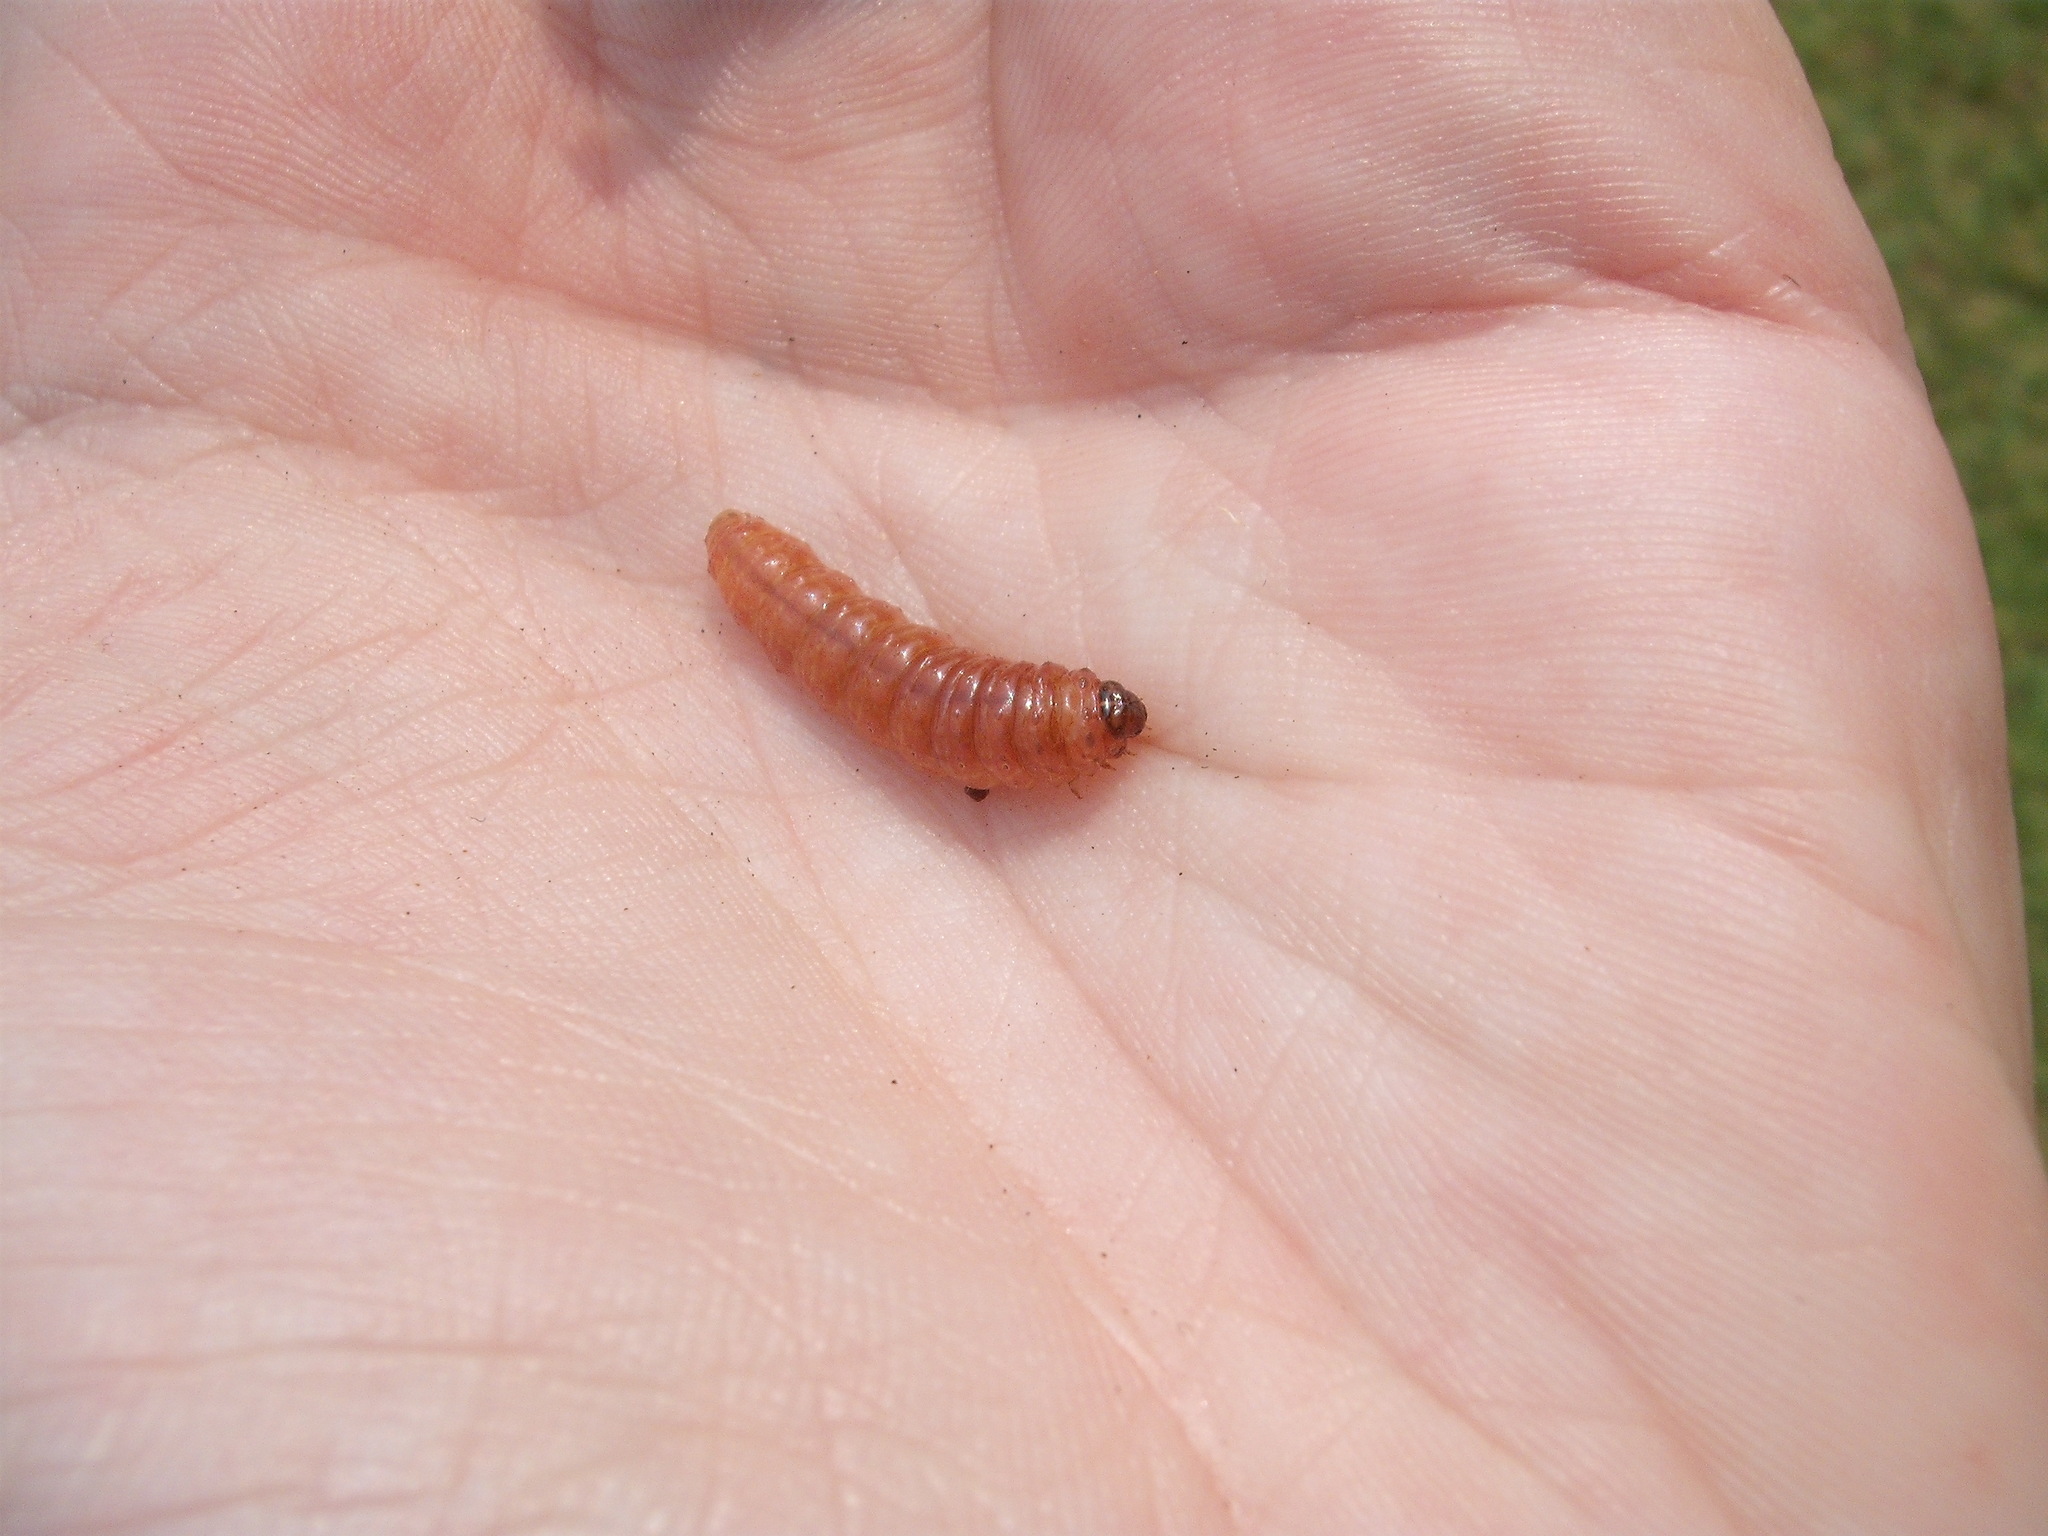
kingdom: Animalia
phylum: Arthropoda
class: Insecta
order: Lepidoptera
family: Crambidae
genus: Sceliodes
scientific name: Sceliodes cordalis
